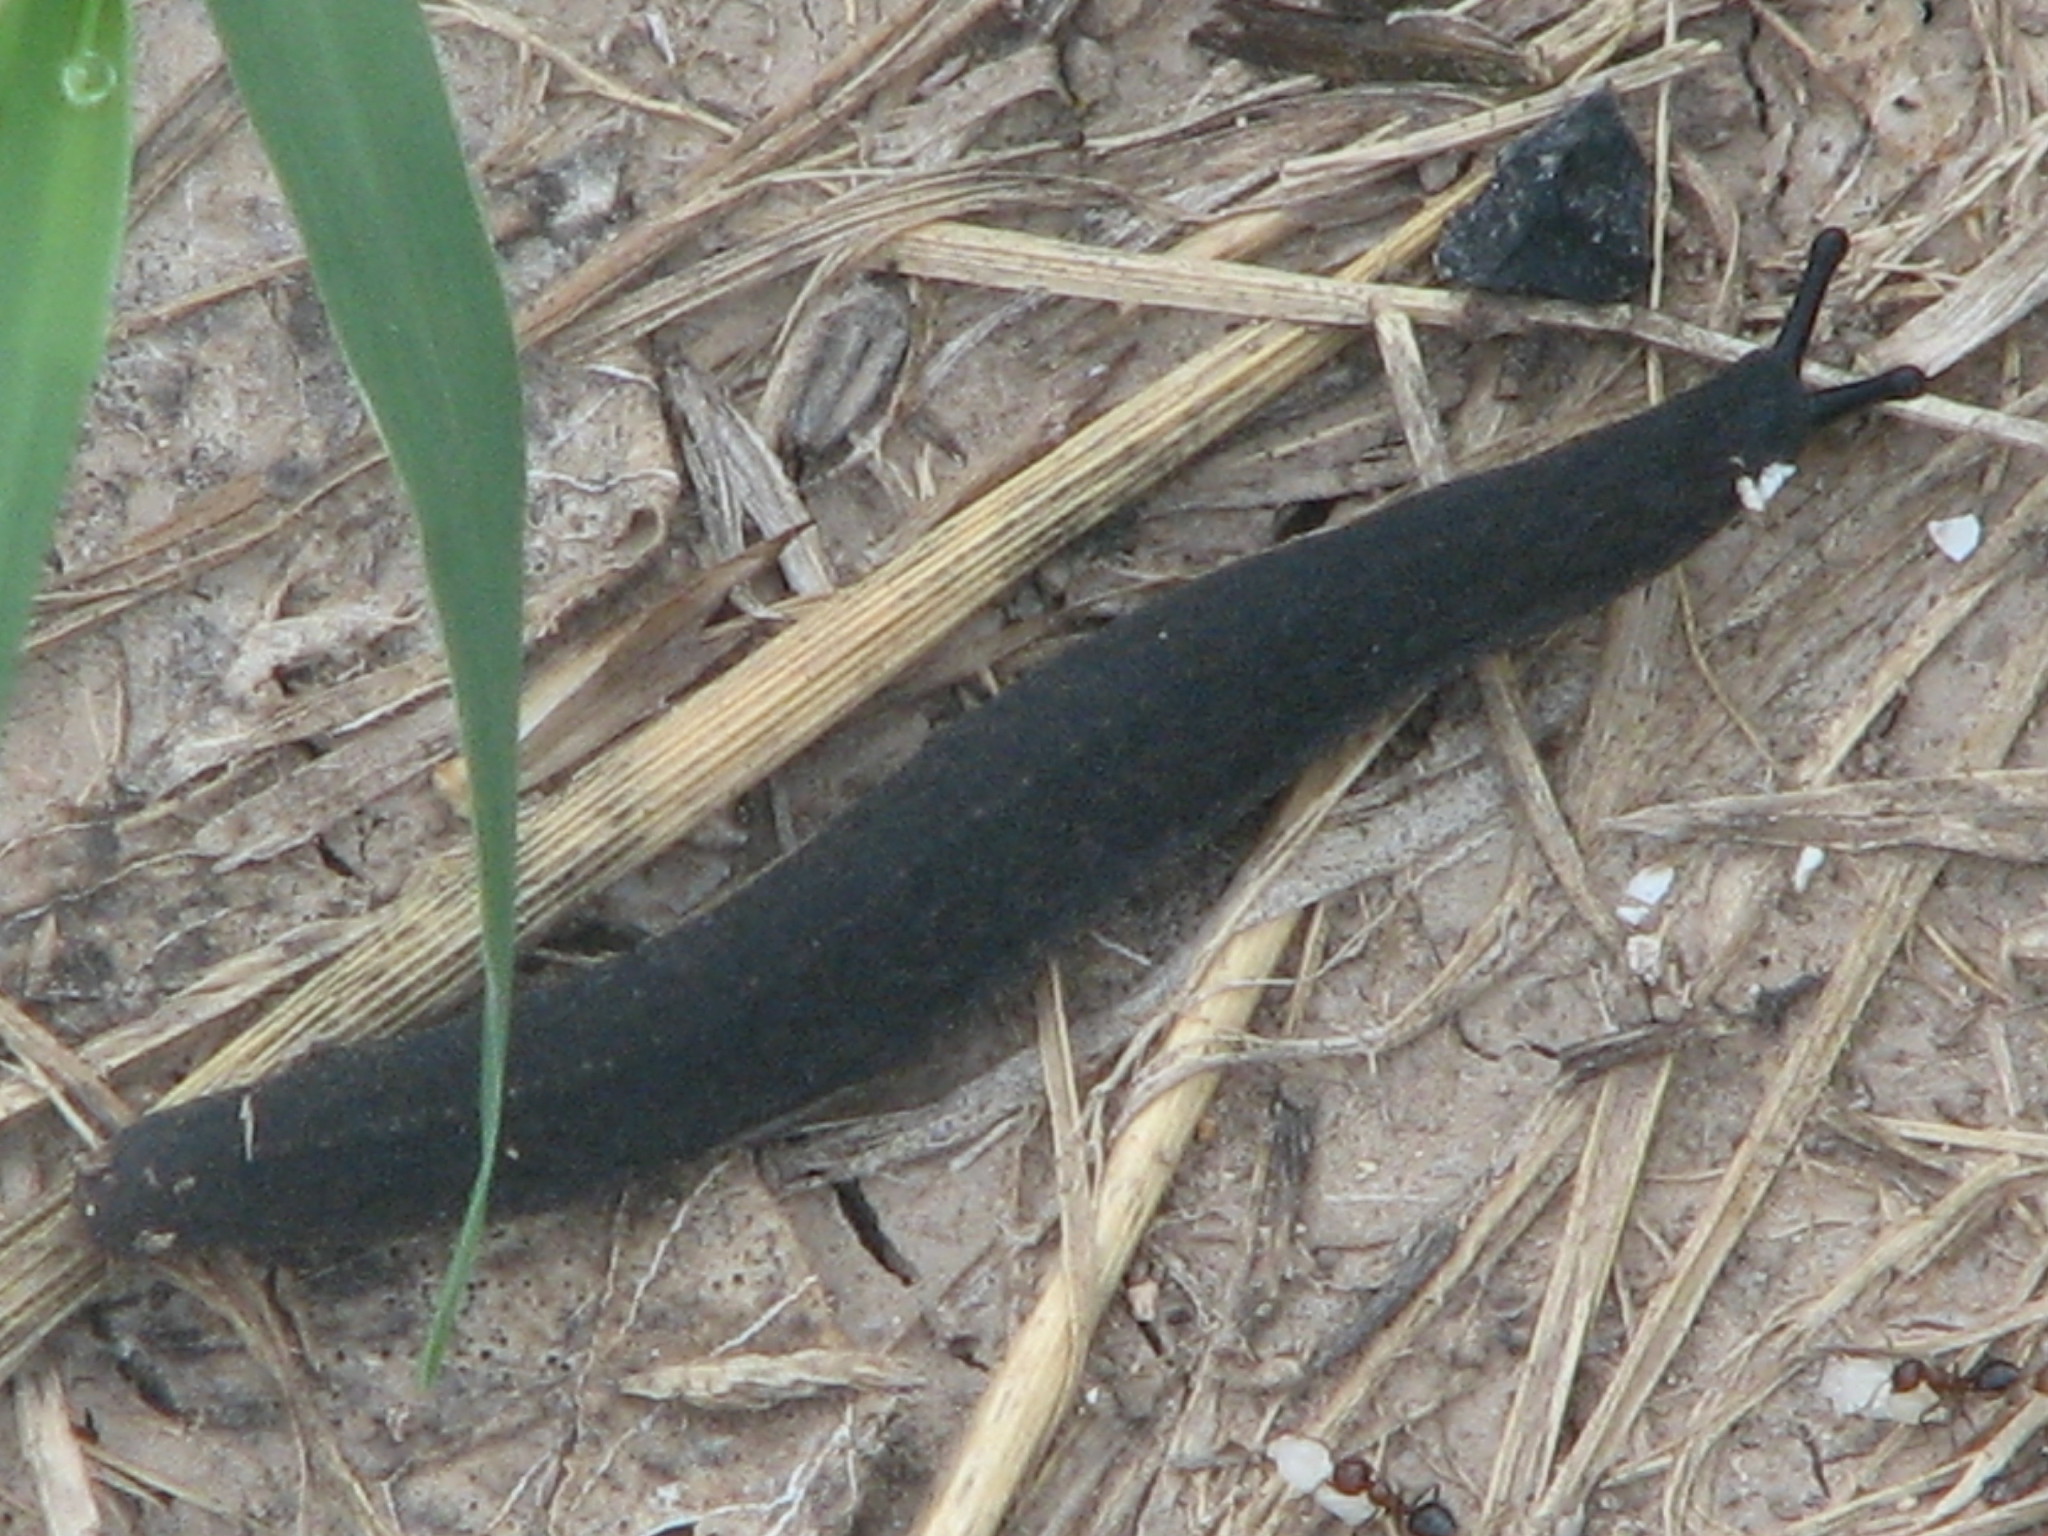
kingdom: Animalia
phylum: Mollusca
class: Gastropoda
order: Systellommatophora
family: Veronicellidae
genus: Belocaulus
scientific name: Belocaulus angustipes
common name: Black velvet leatherleaf slug
